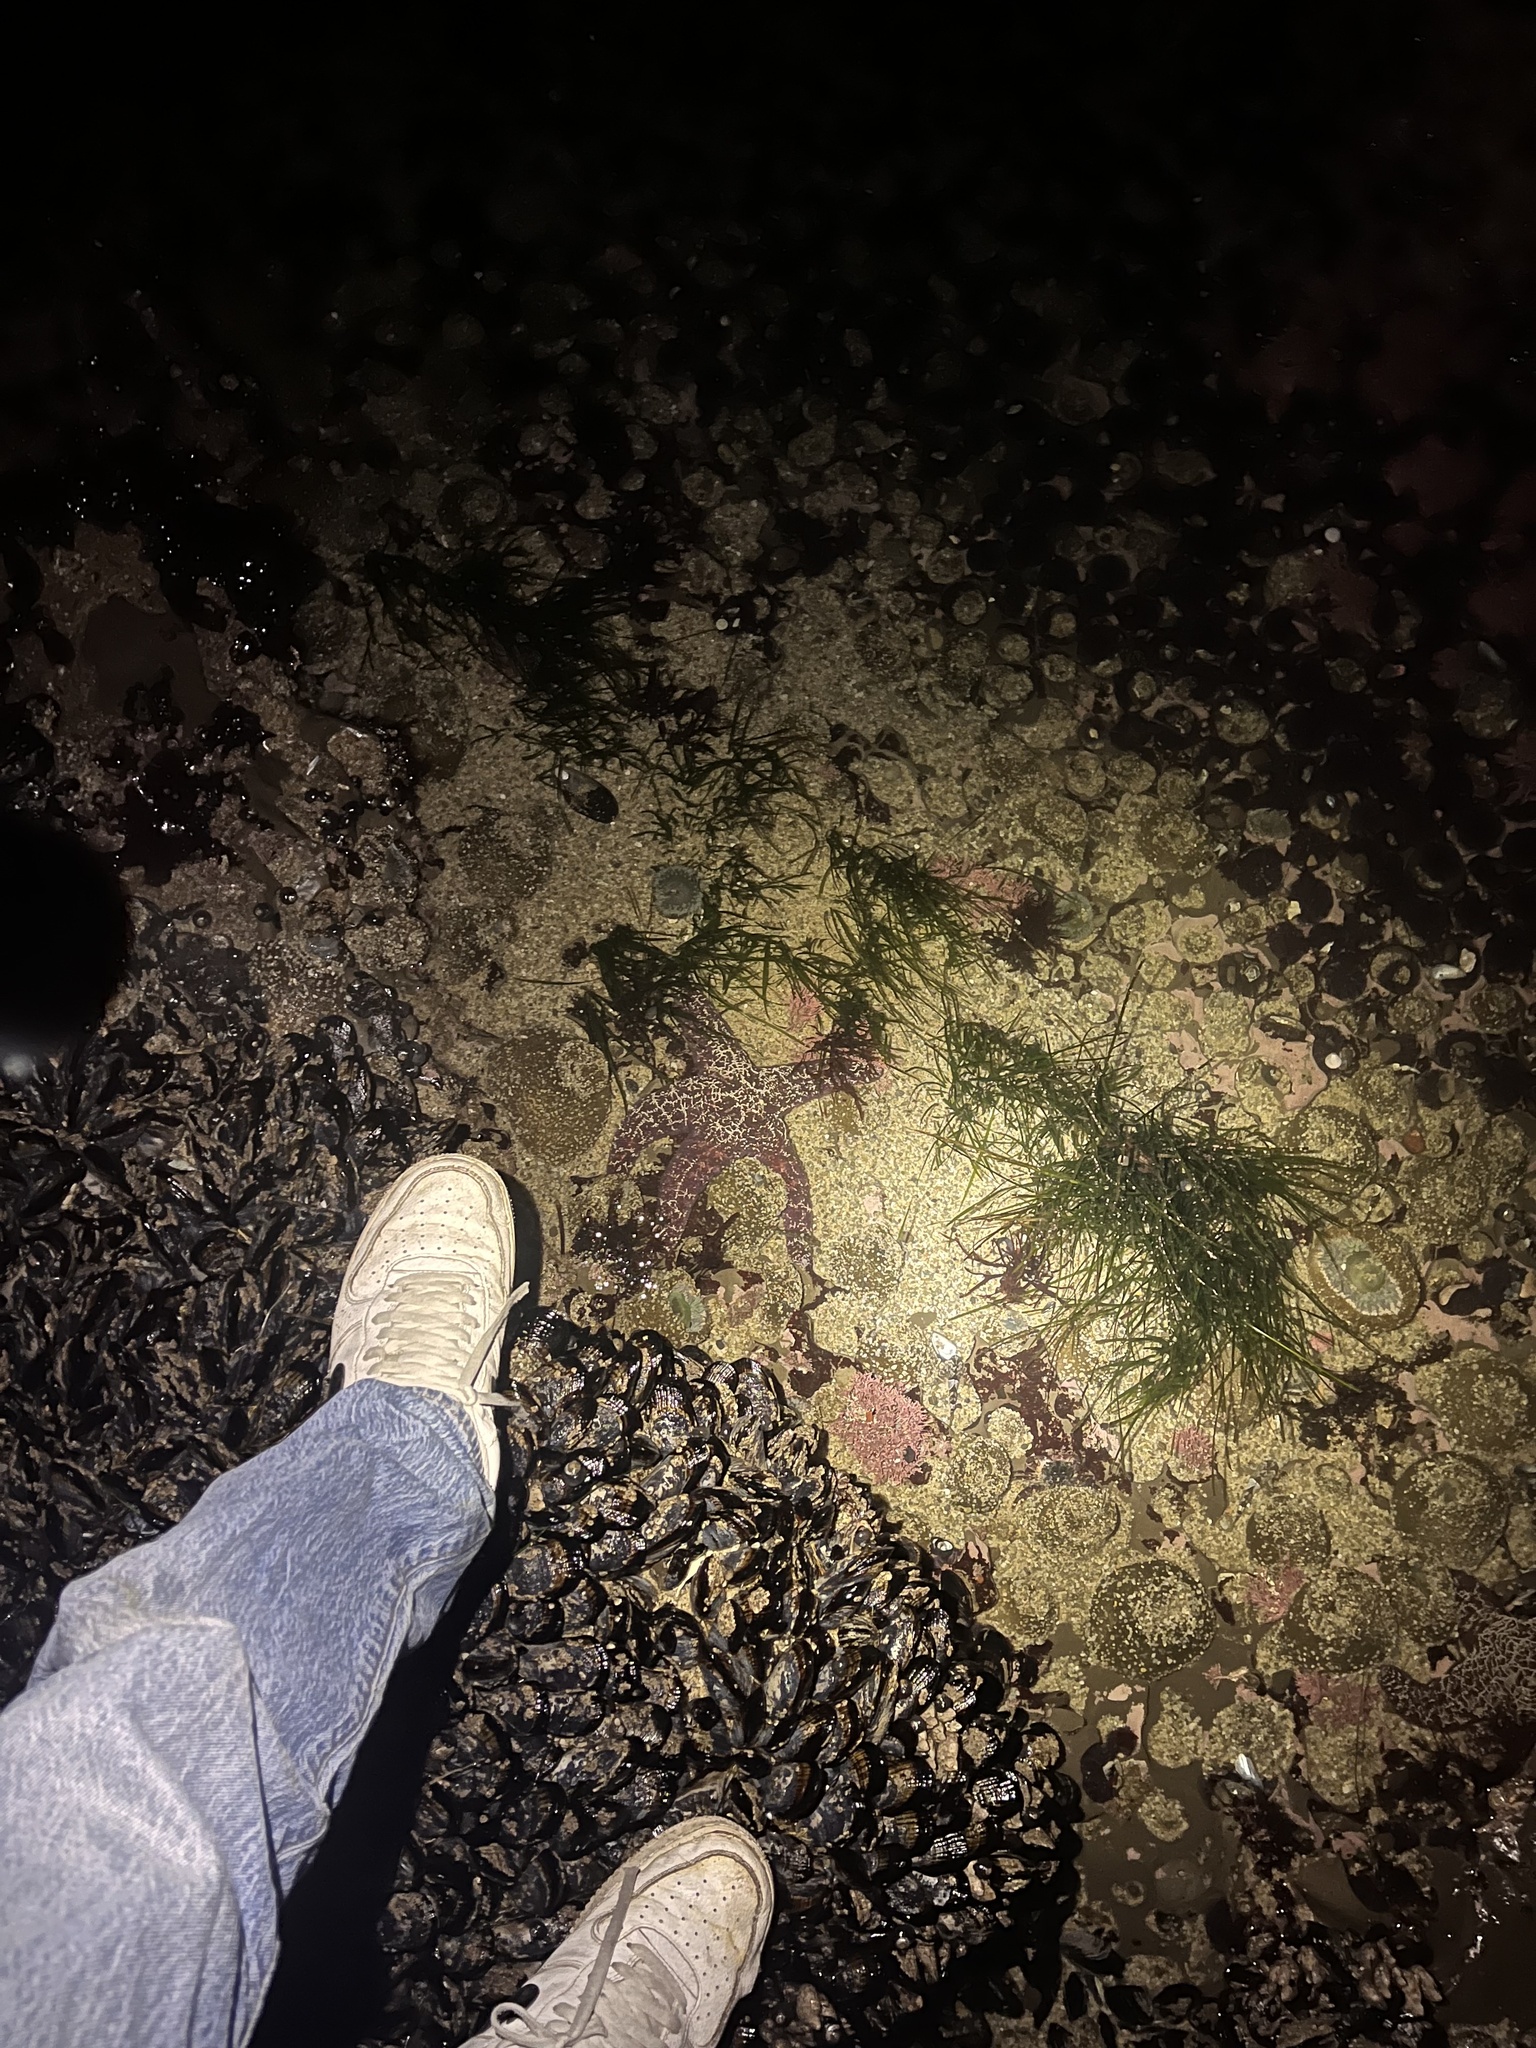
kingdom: Animalia
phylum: Echinodermata
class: Asteroidea
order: Forcipulatida
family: Asteriidae
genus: Pisaster
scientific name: Pisaster ochraceus
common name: Ochre stars
